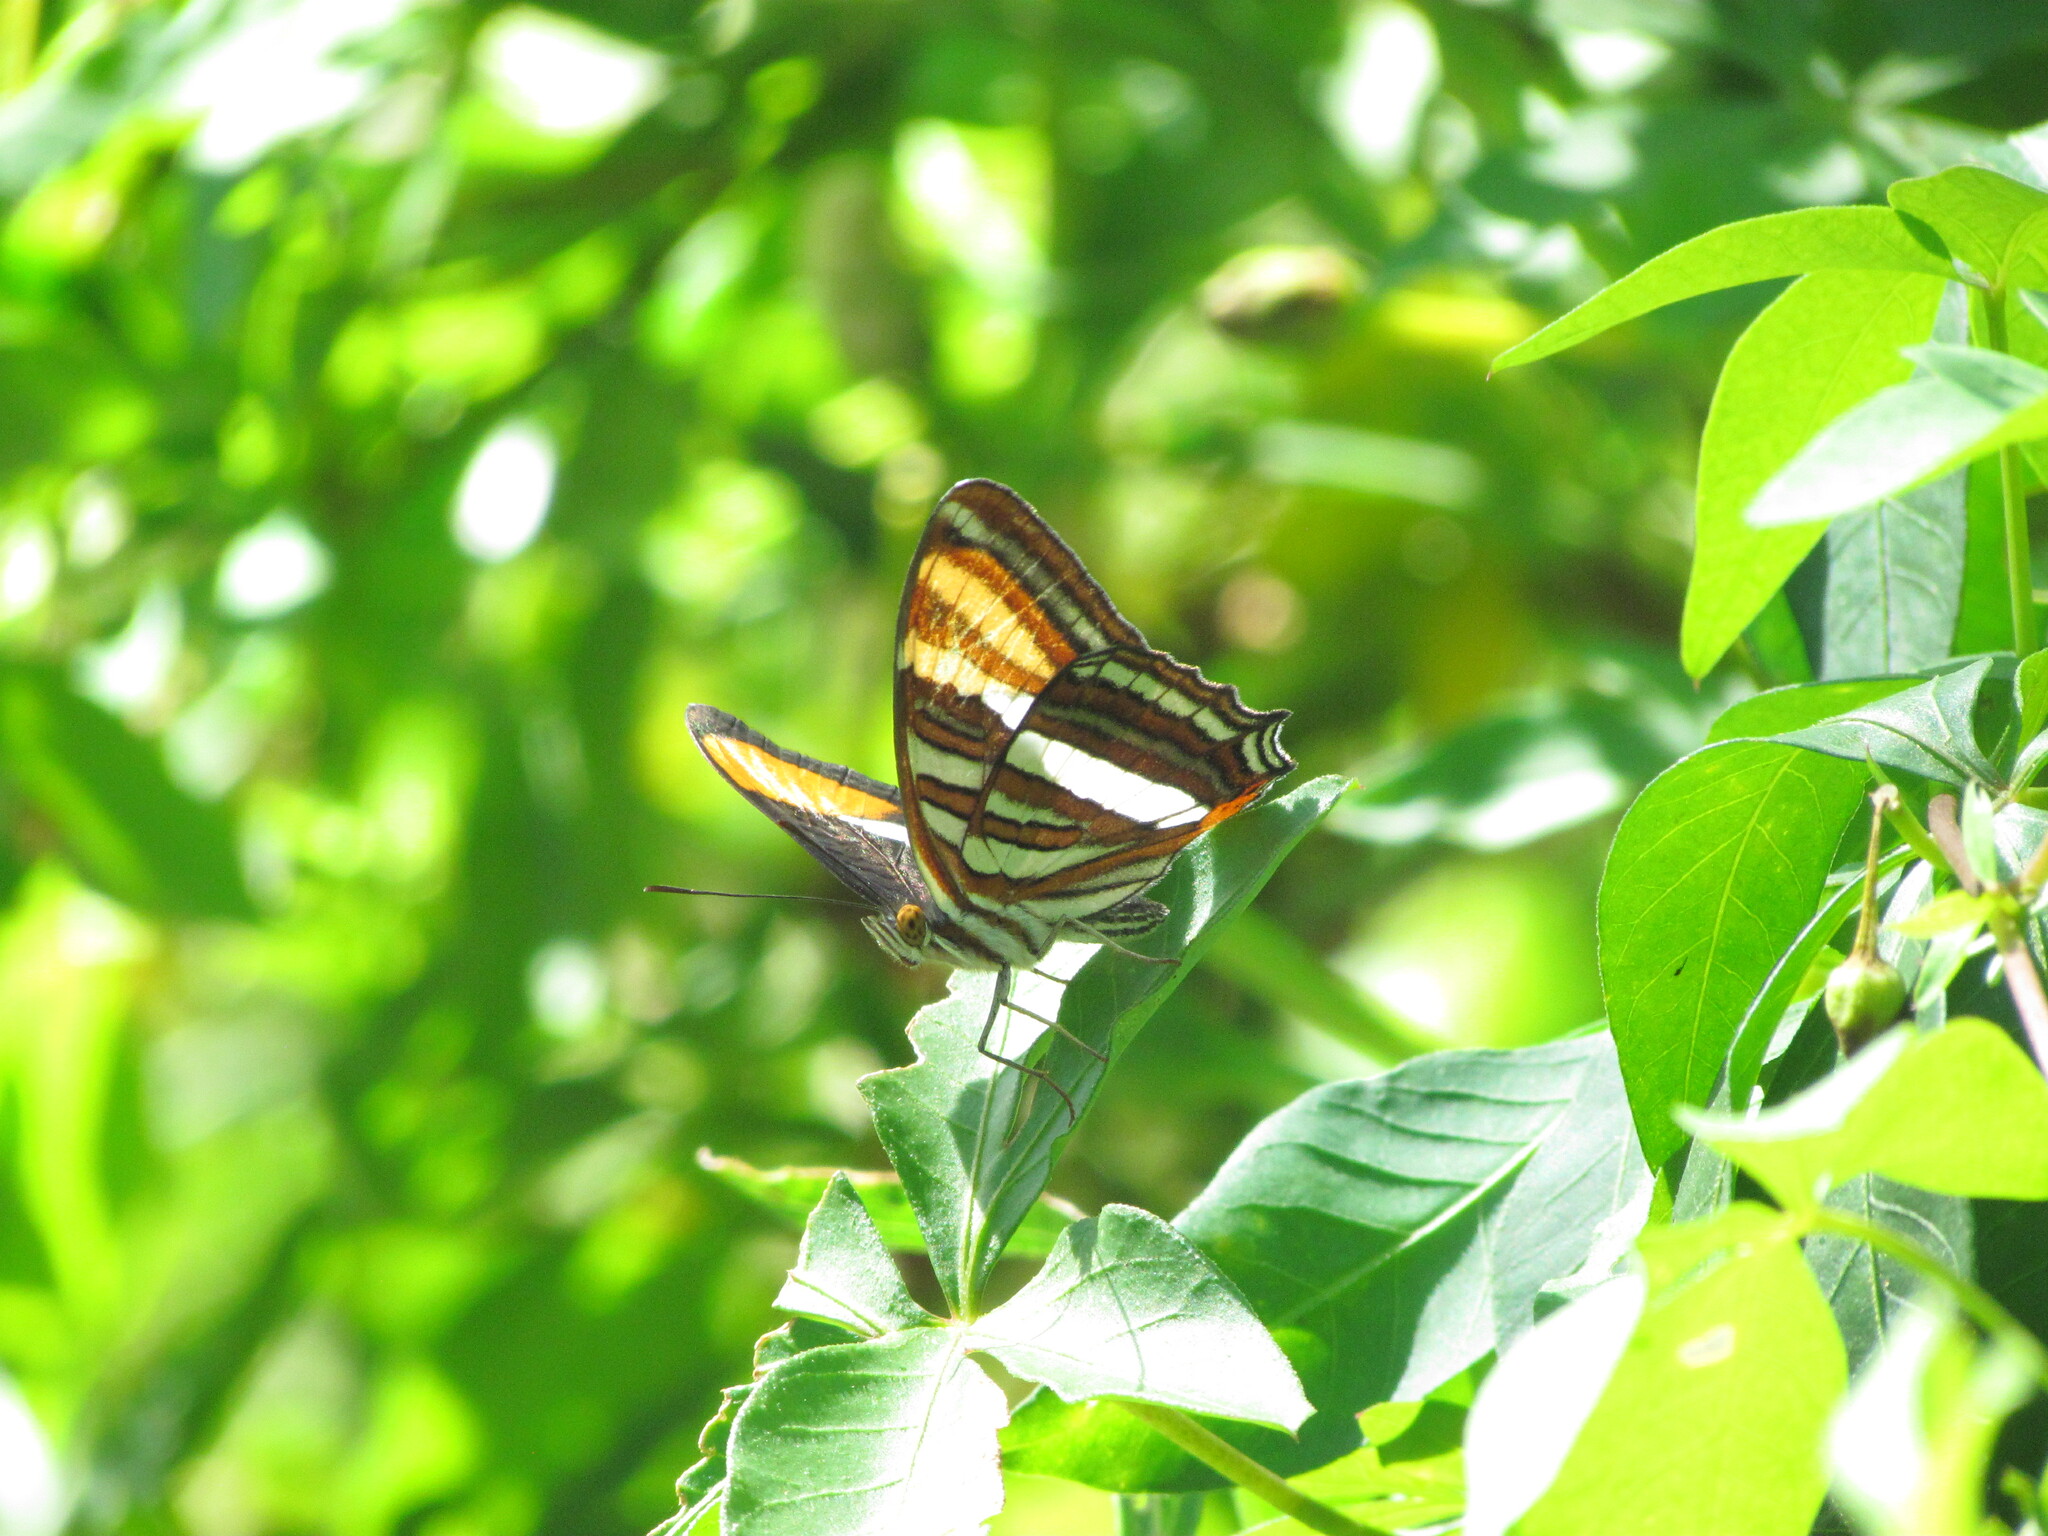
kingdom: Animalia
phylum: Arthropoda
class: Insecta
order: Lepidoptera
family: Nymphalidae
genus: Limenitis
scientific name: Limenitis syma
